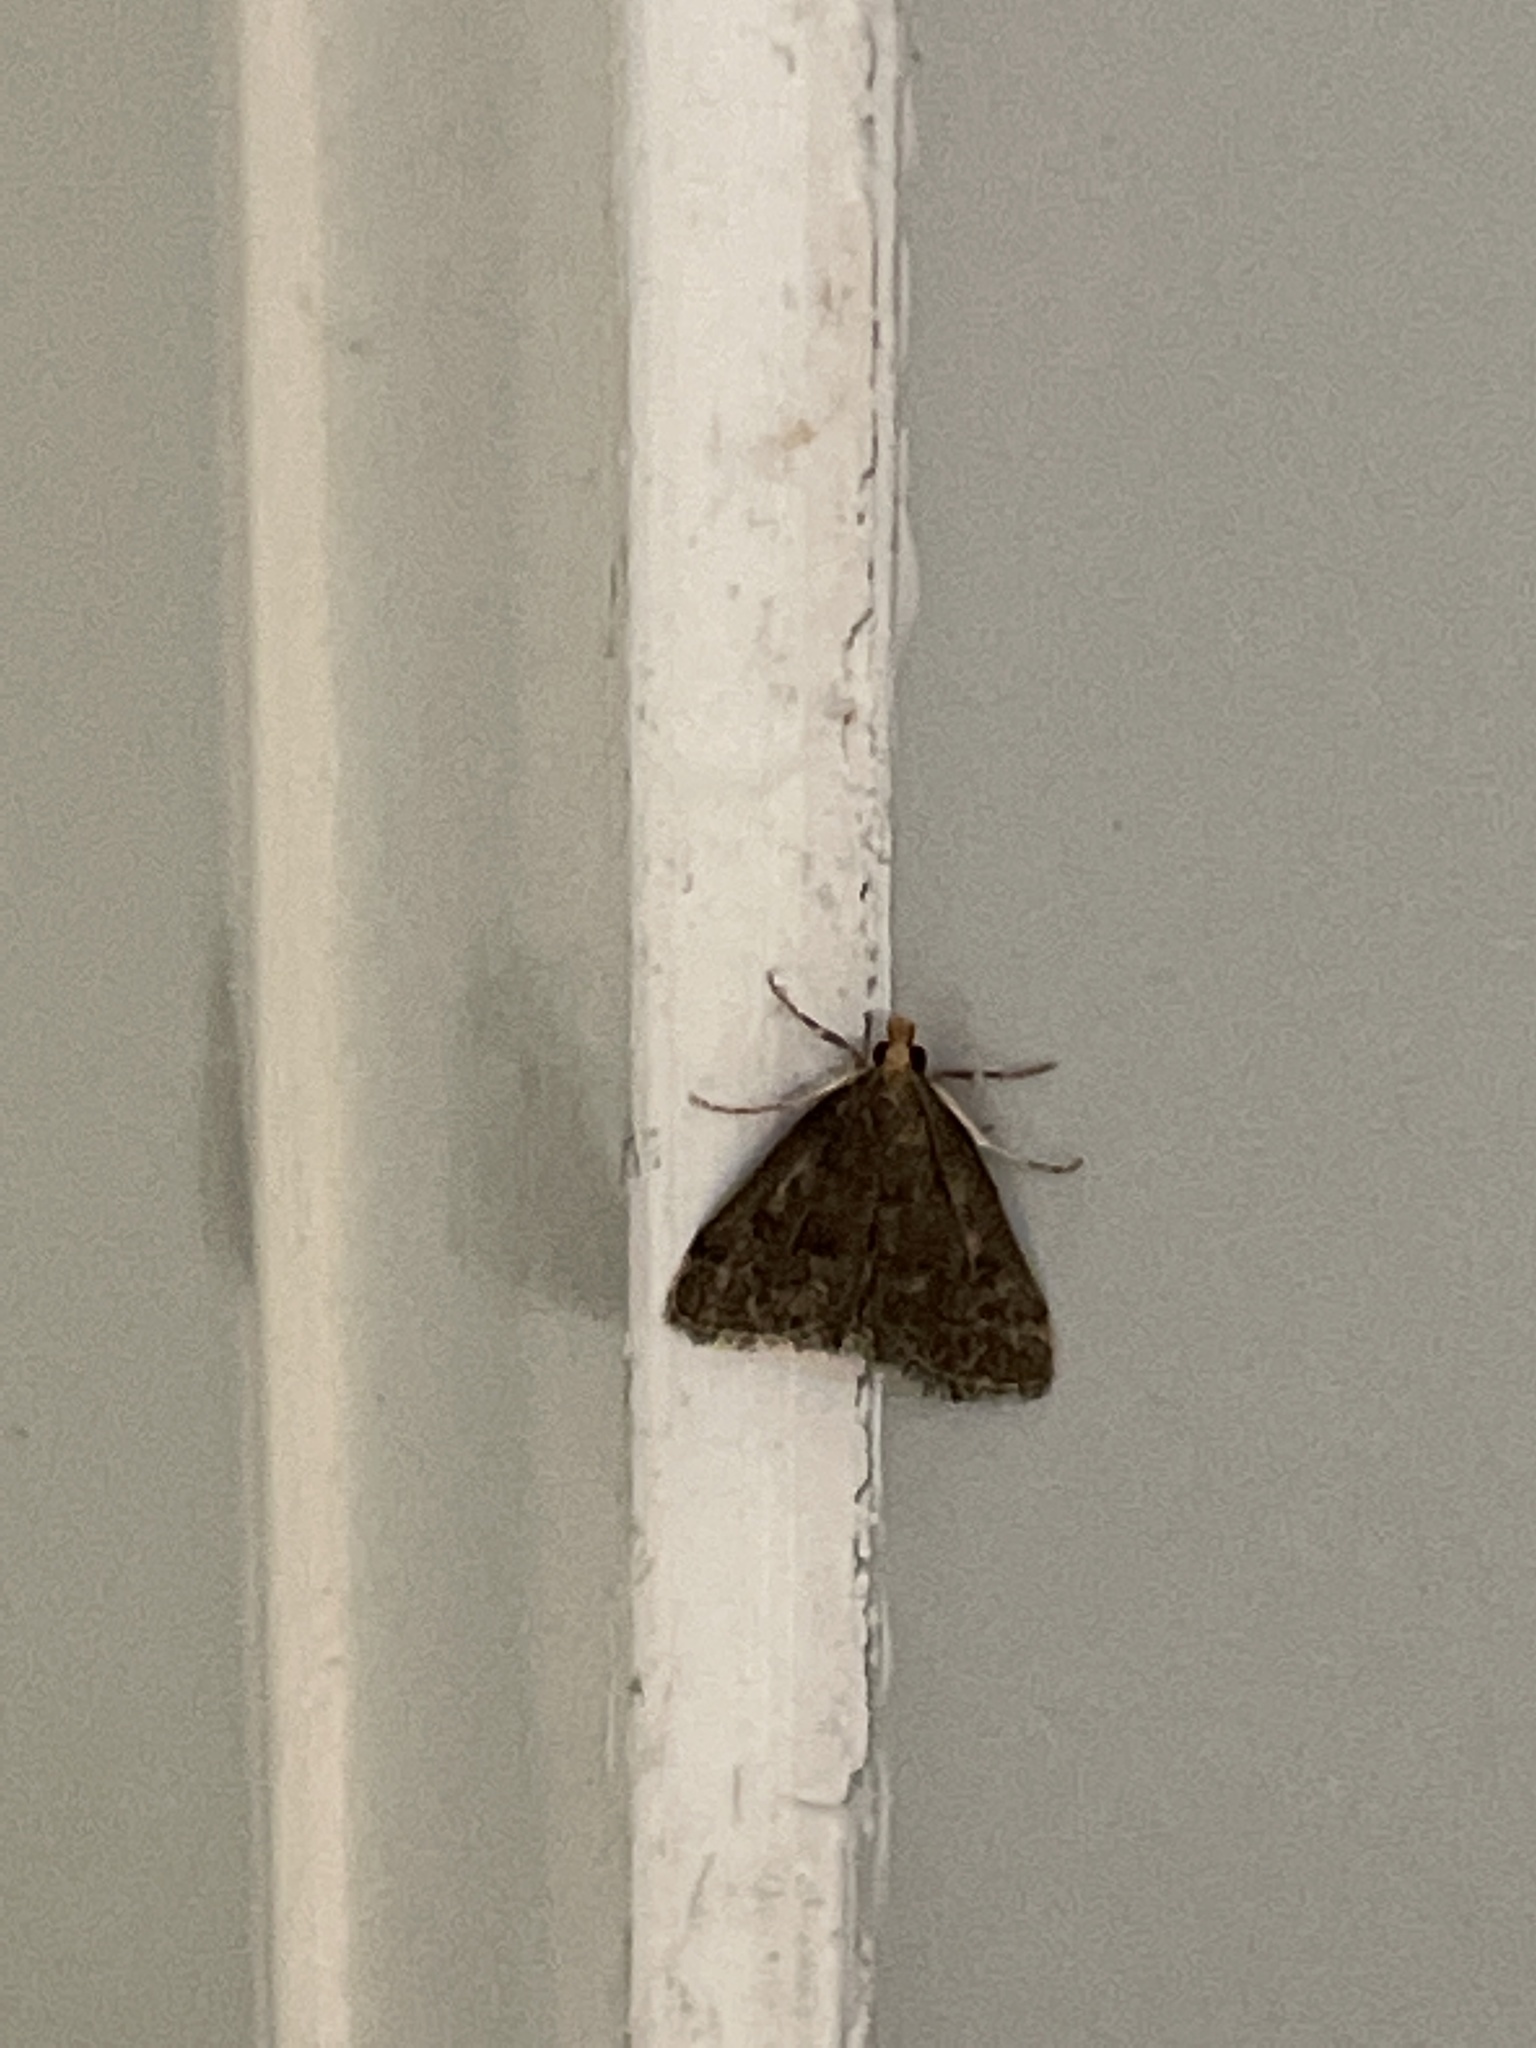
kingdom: Animalia
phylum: Arthropoda
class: Insecta
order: Lepidoptera
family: Crambidae
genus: Pyrausta
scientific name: Pyrausta merrickalis
